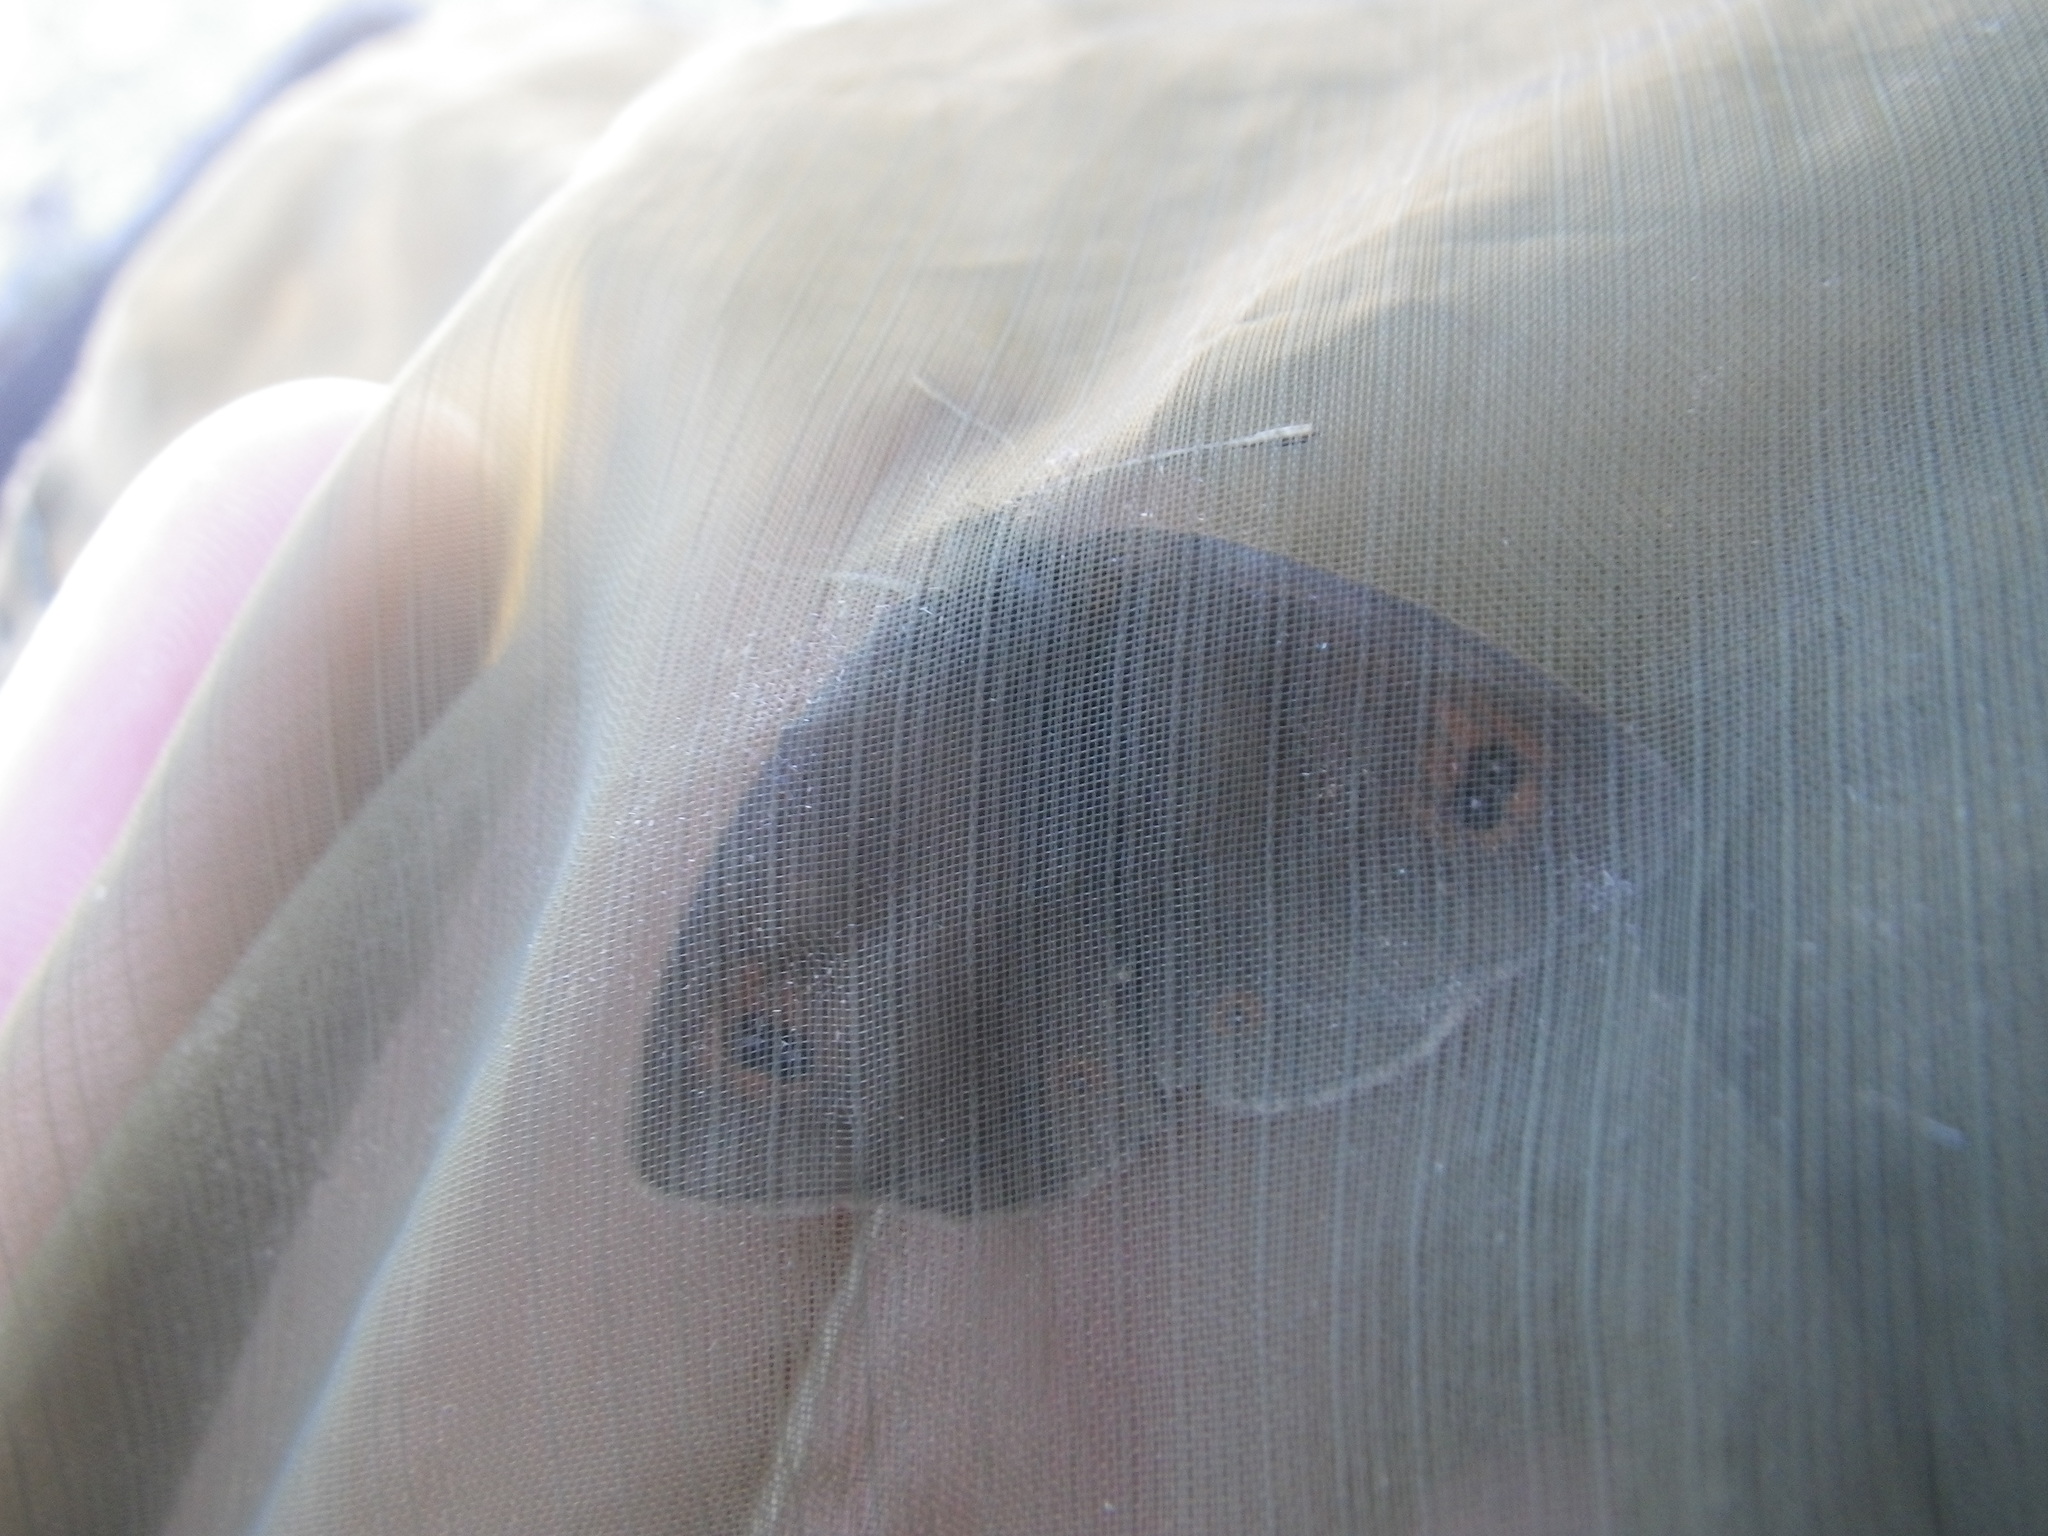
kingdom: Animalia
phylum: Arthropoda
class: Insecta
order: Lepidoptera
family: Nymphalidae
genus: Erebia
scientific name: Erebia cassioides
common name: Common brassy ringlet
